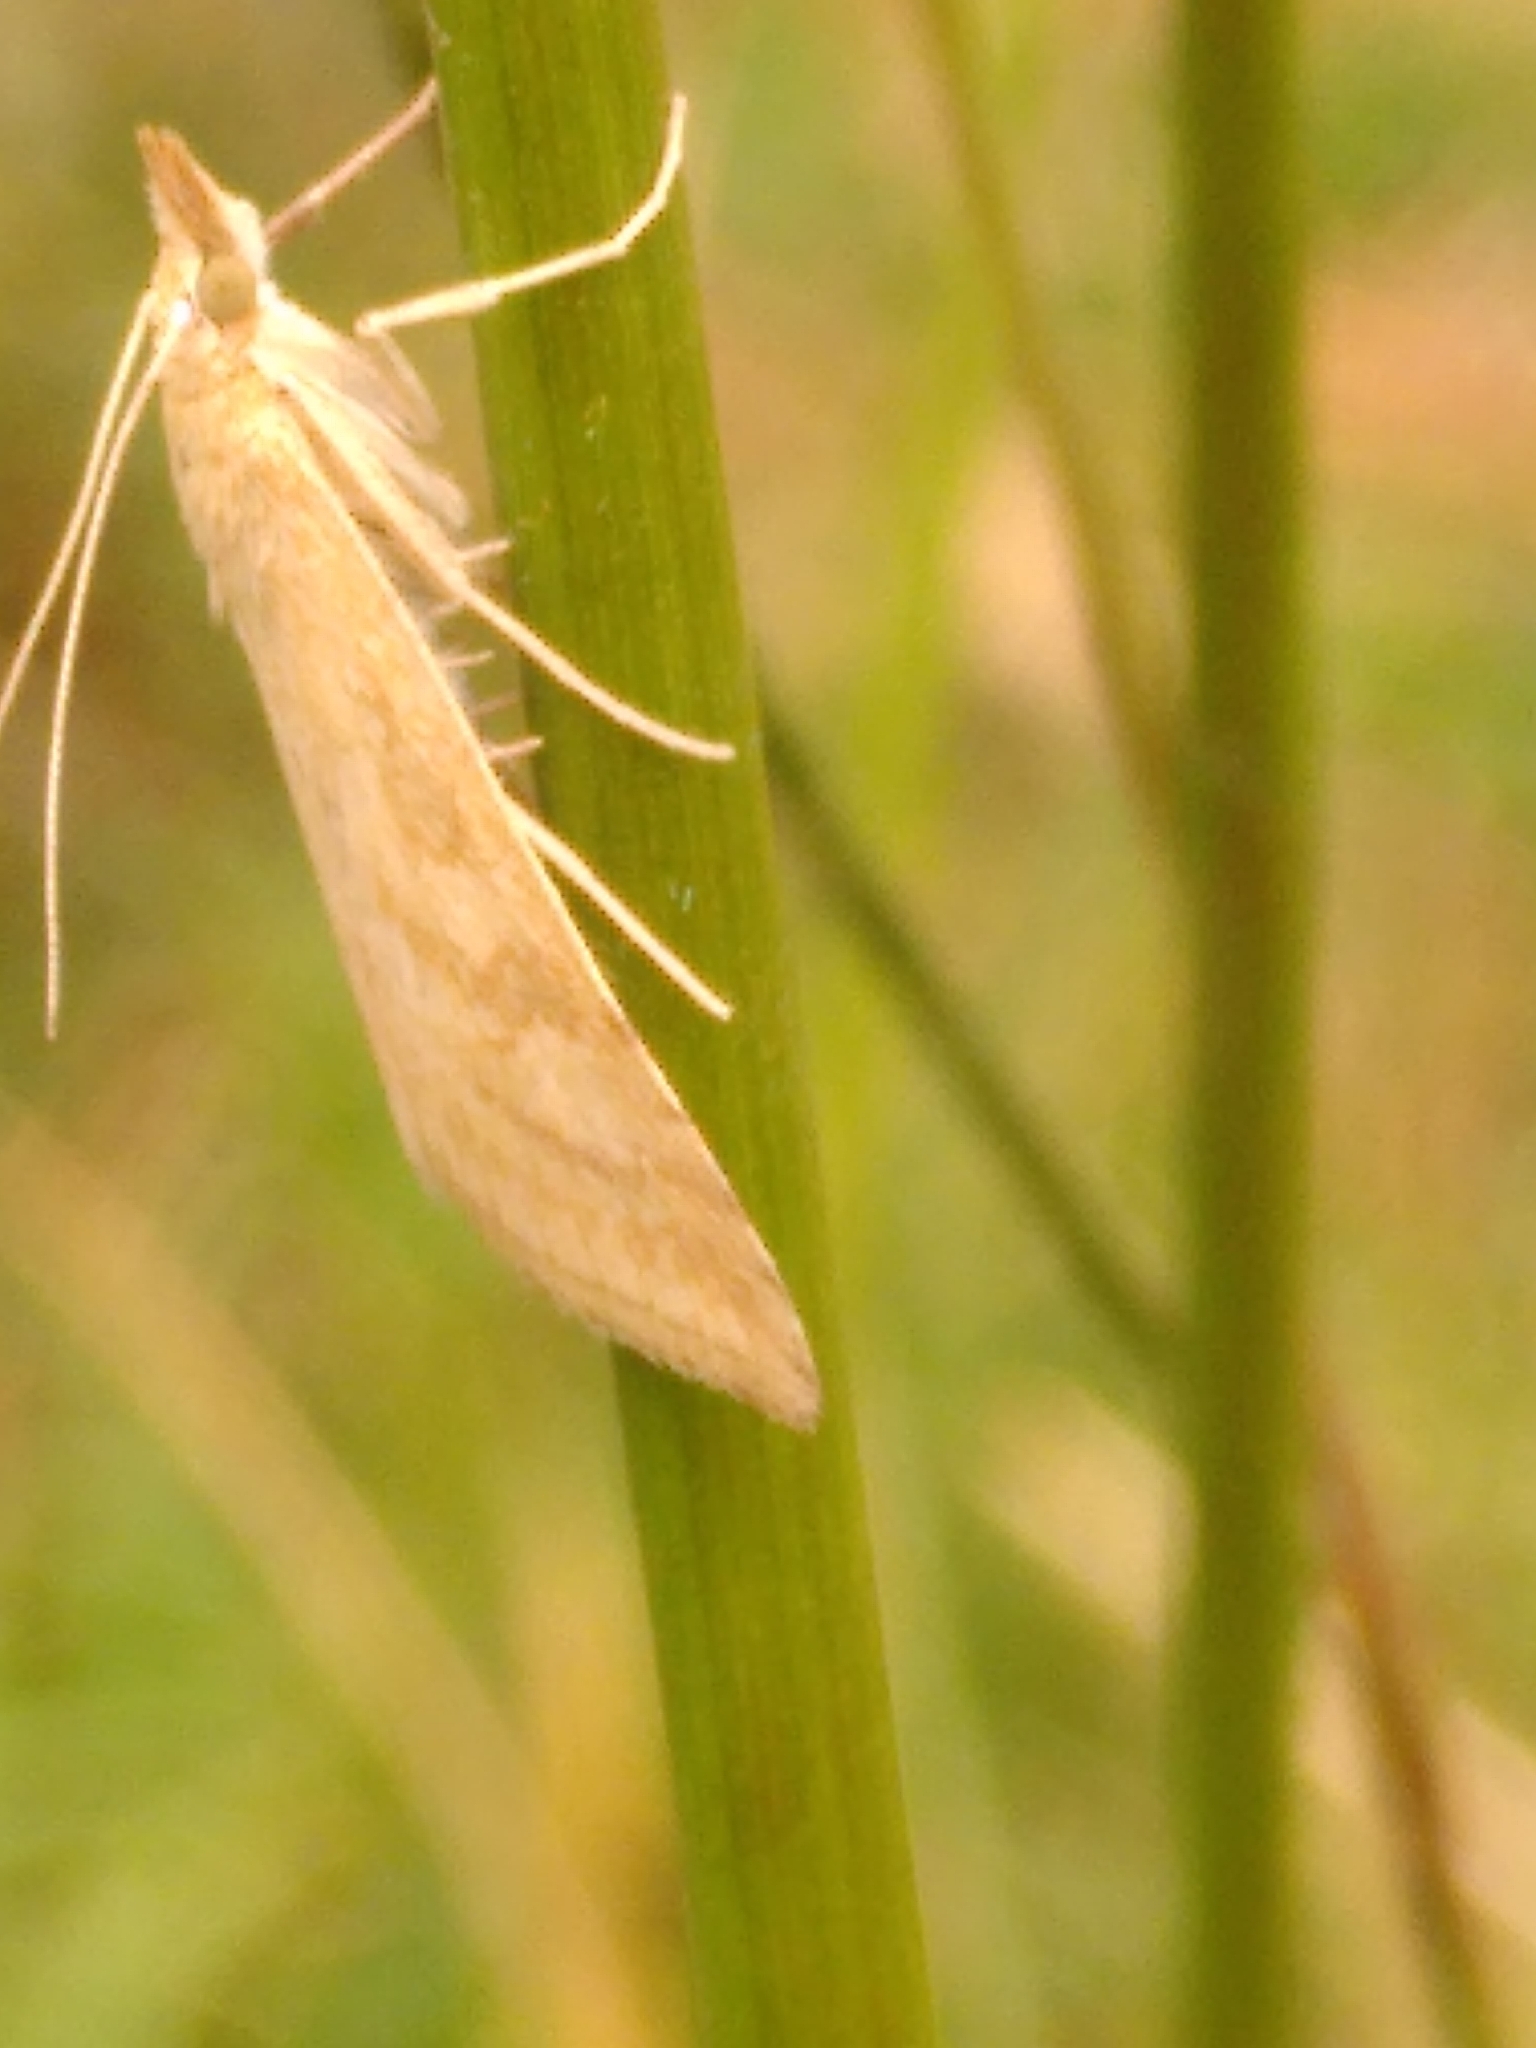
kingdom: Animalia
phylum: Arthropoda
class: Insecta
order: Lepidoptera
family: Crambidae
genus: Udea
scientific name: Udea lutealis
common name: Pale straw pearl
